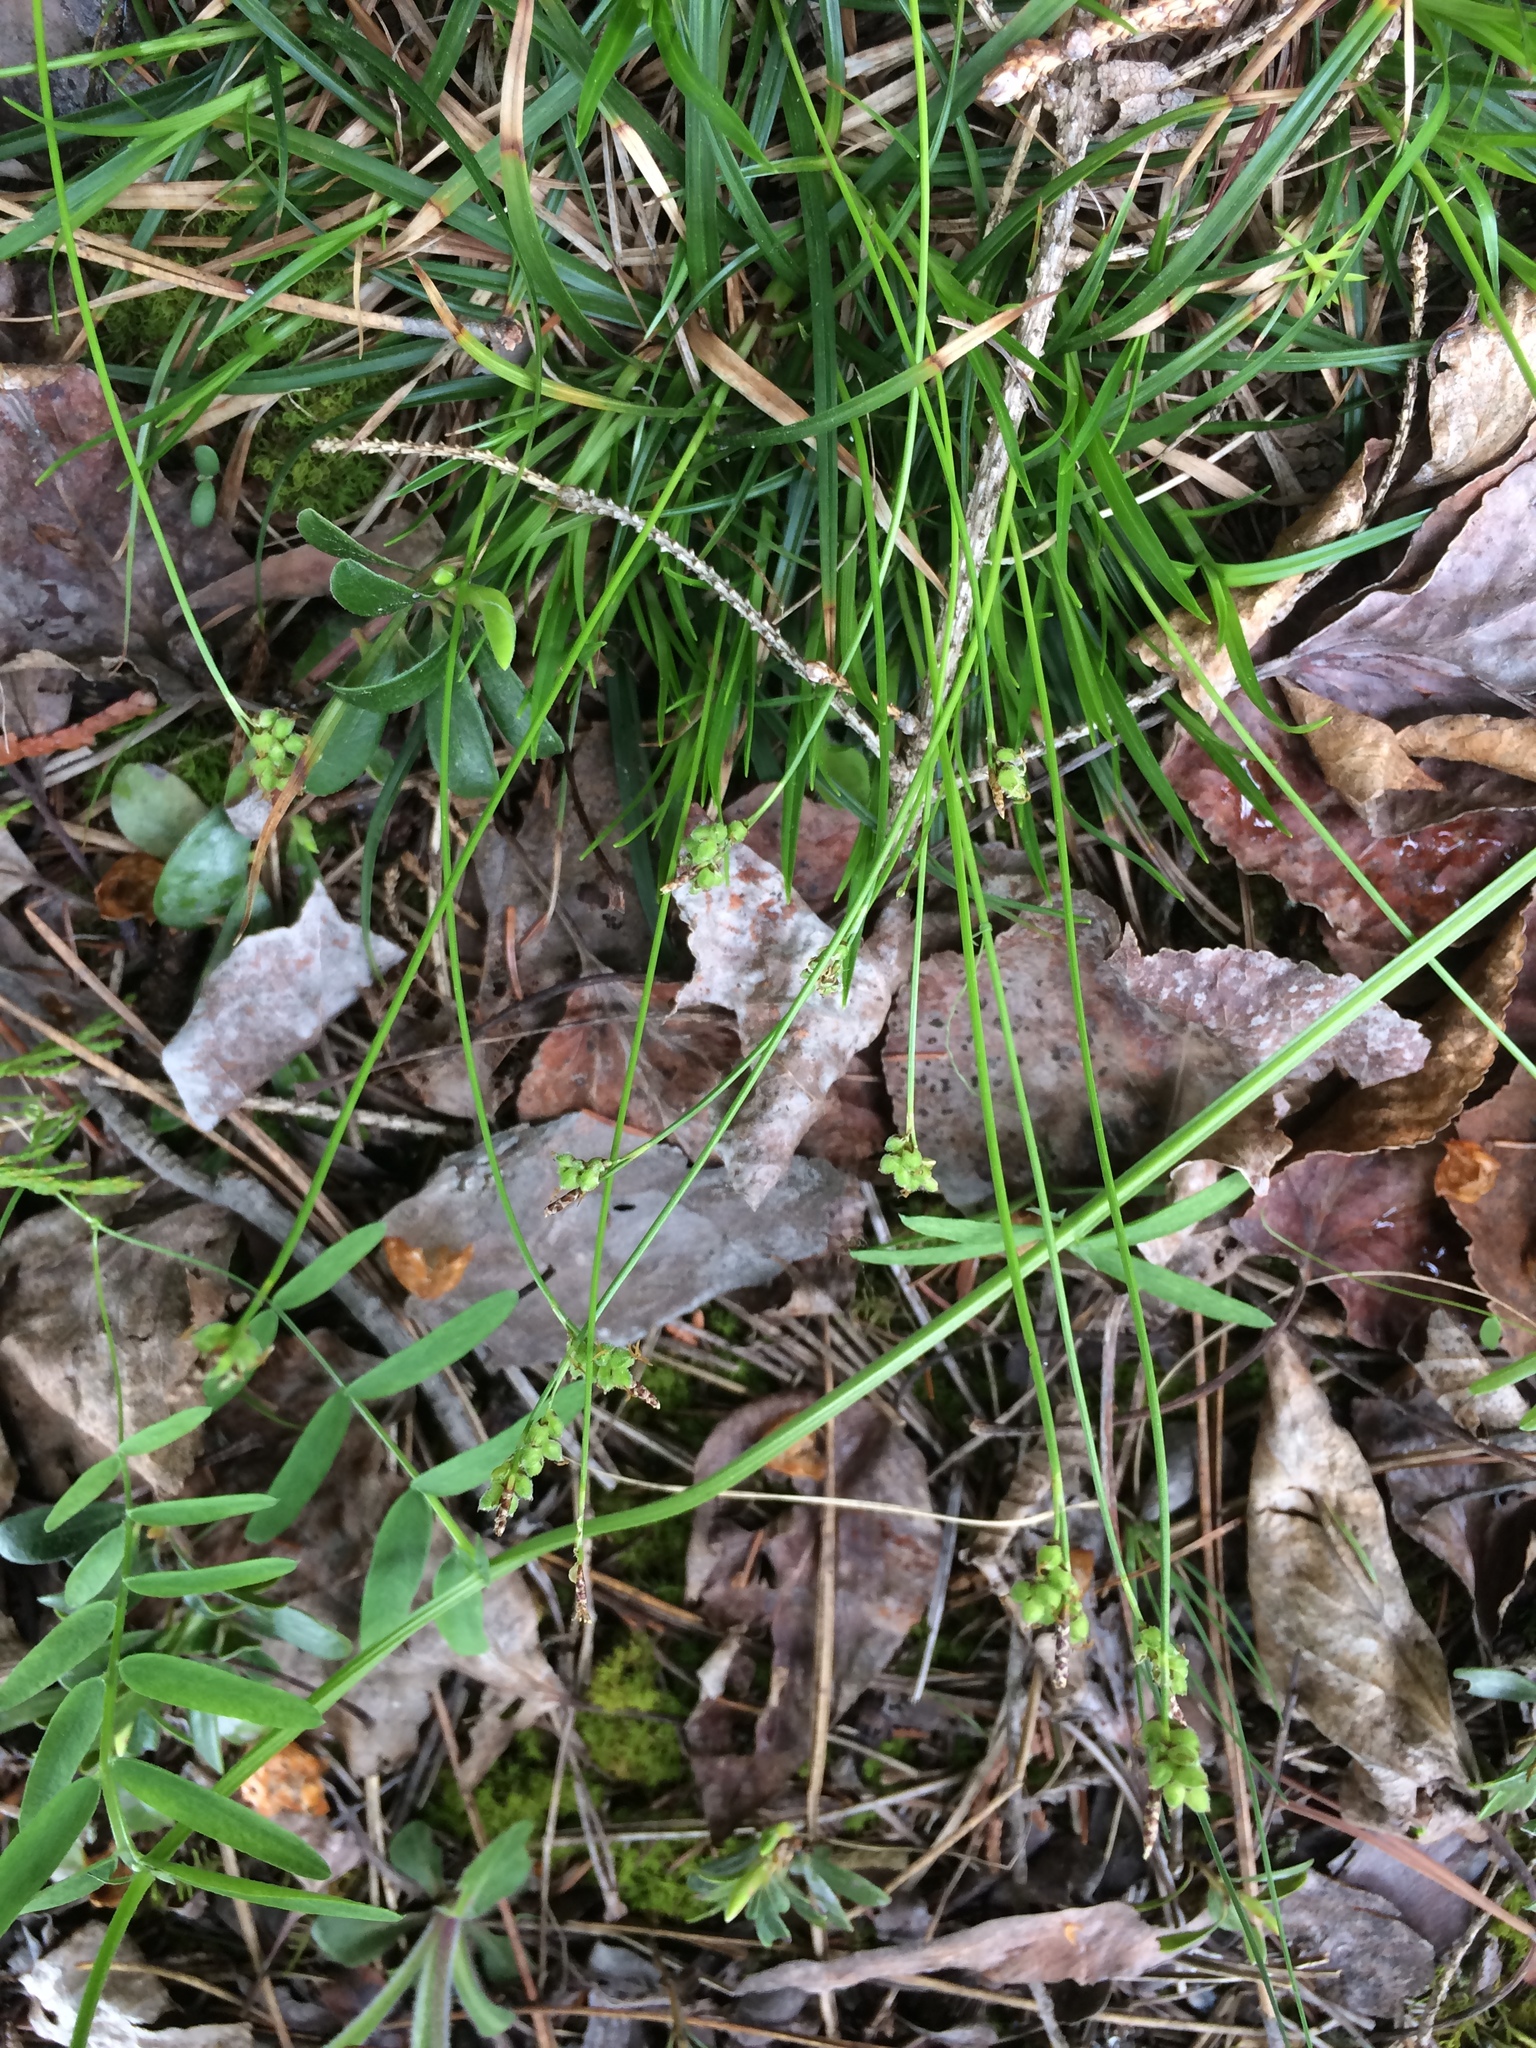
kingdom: Plantae
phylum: Tracheophyta
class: Liliopsida
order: Poales
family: Cyperaceae
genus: Carex
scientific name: Carex concinna
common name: Beautiful sedge
